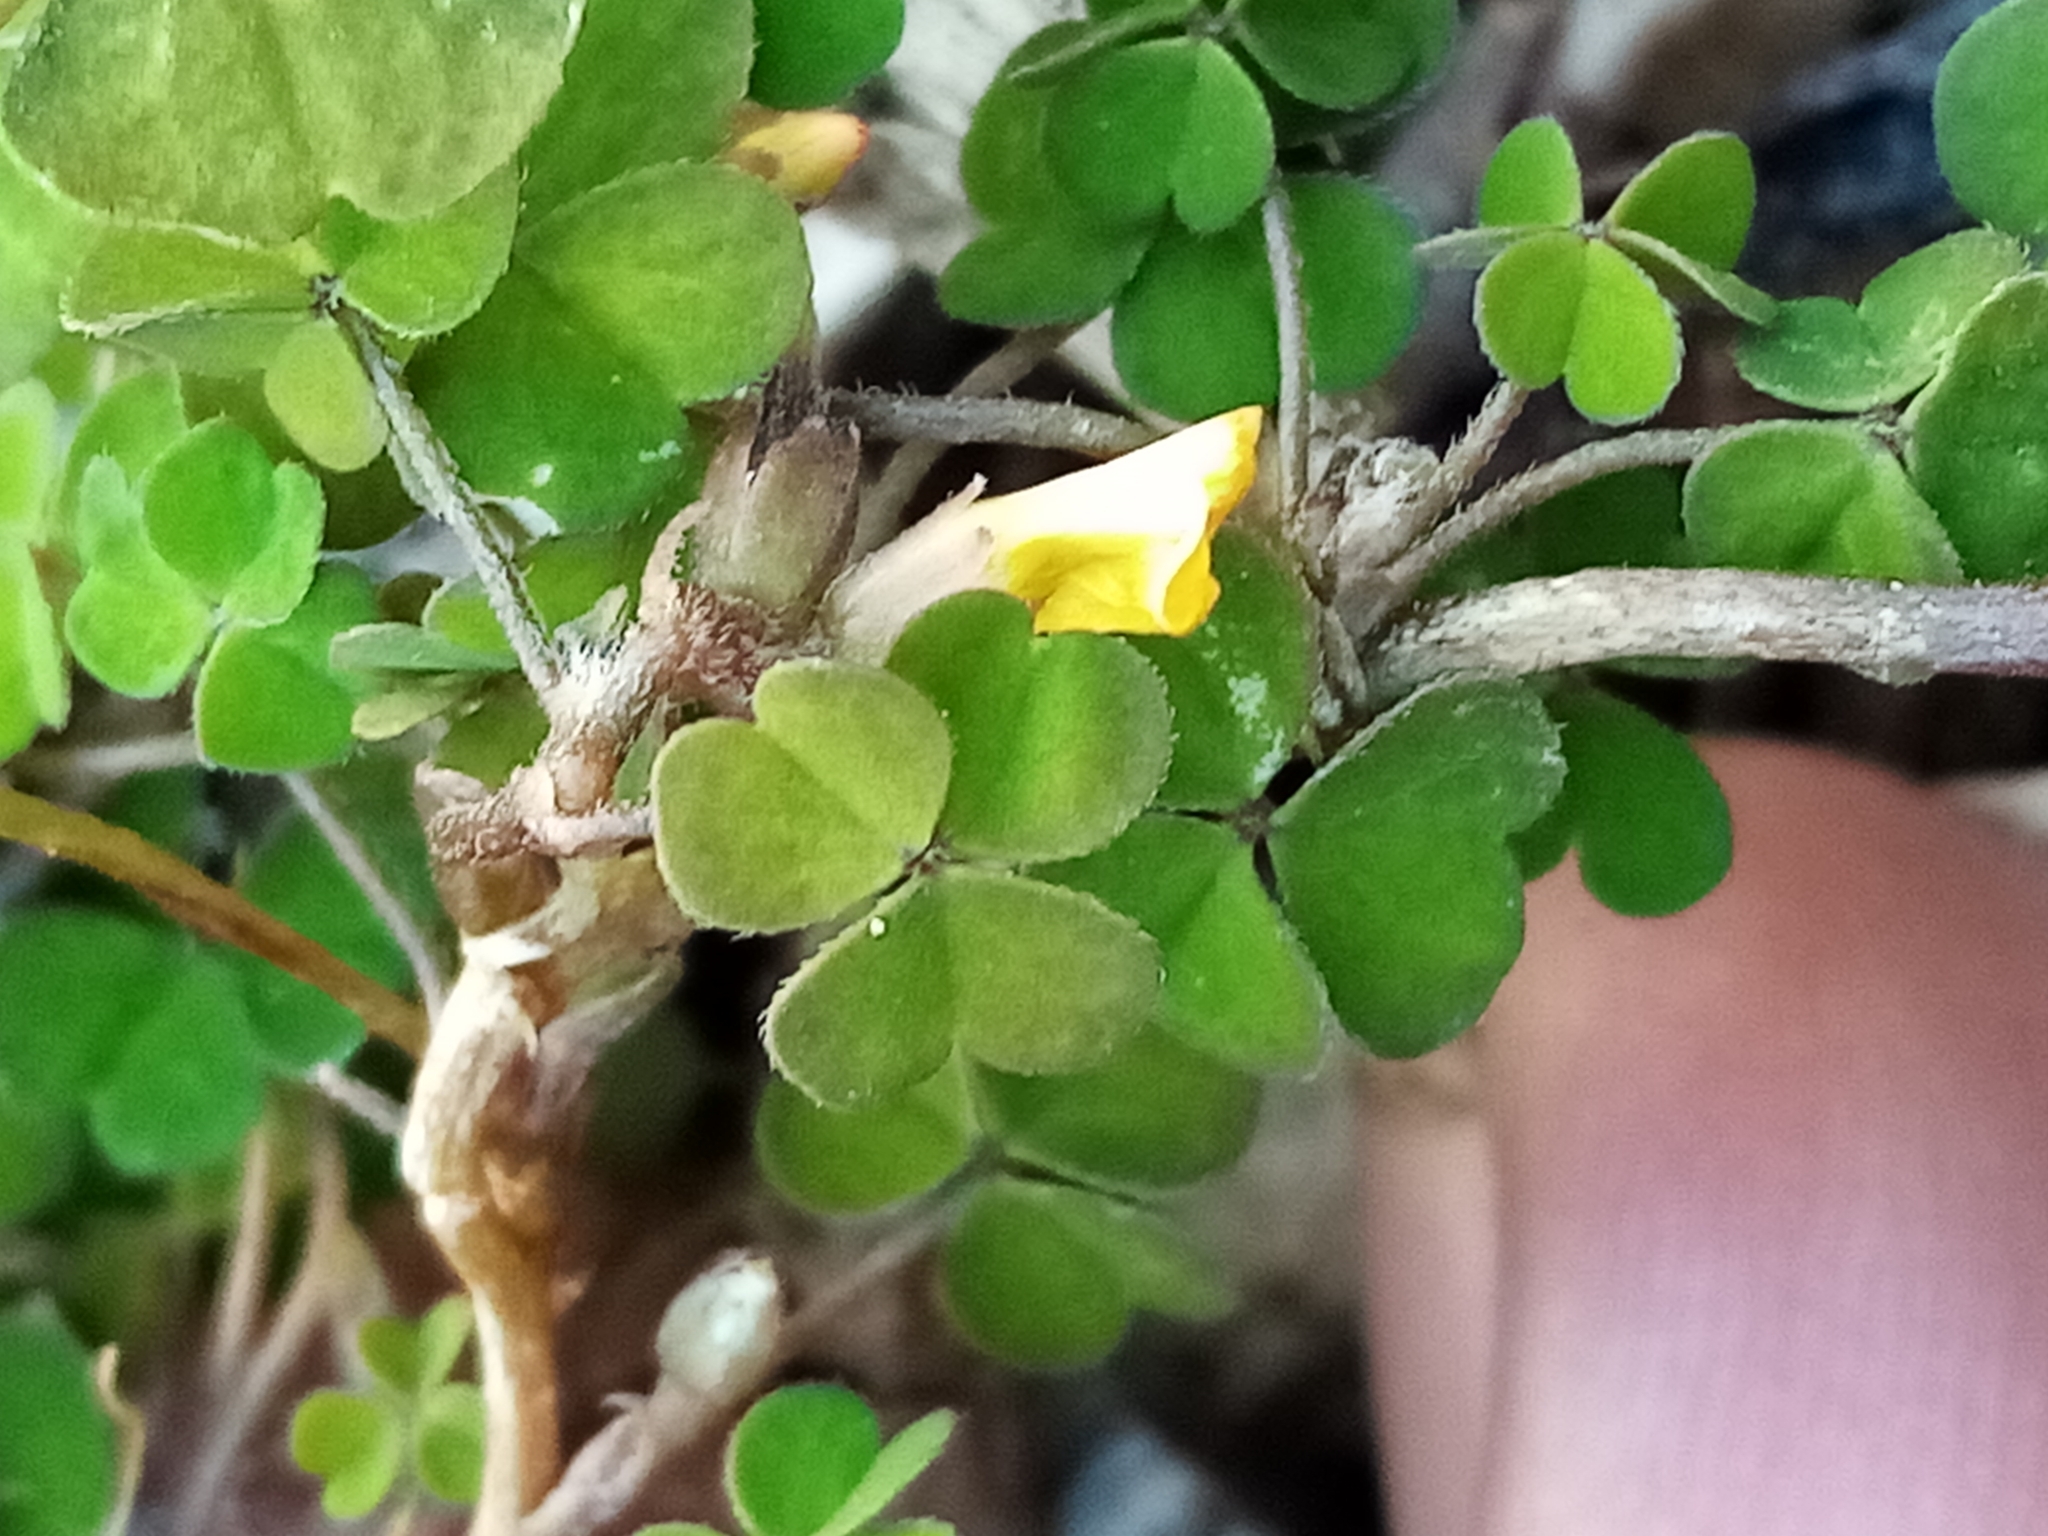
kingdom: Plantae
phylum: Tracheophyta
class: Magnoliopsida
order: Oxalidales
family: Oxalidaceae
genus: Oxalis
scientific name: Oxalis exilis
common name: Least yellow-sorrel
